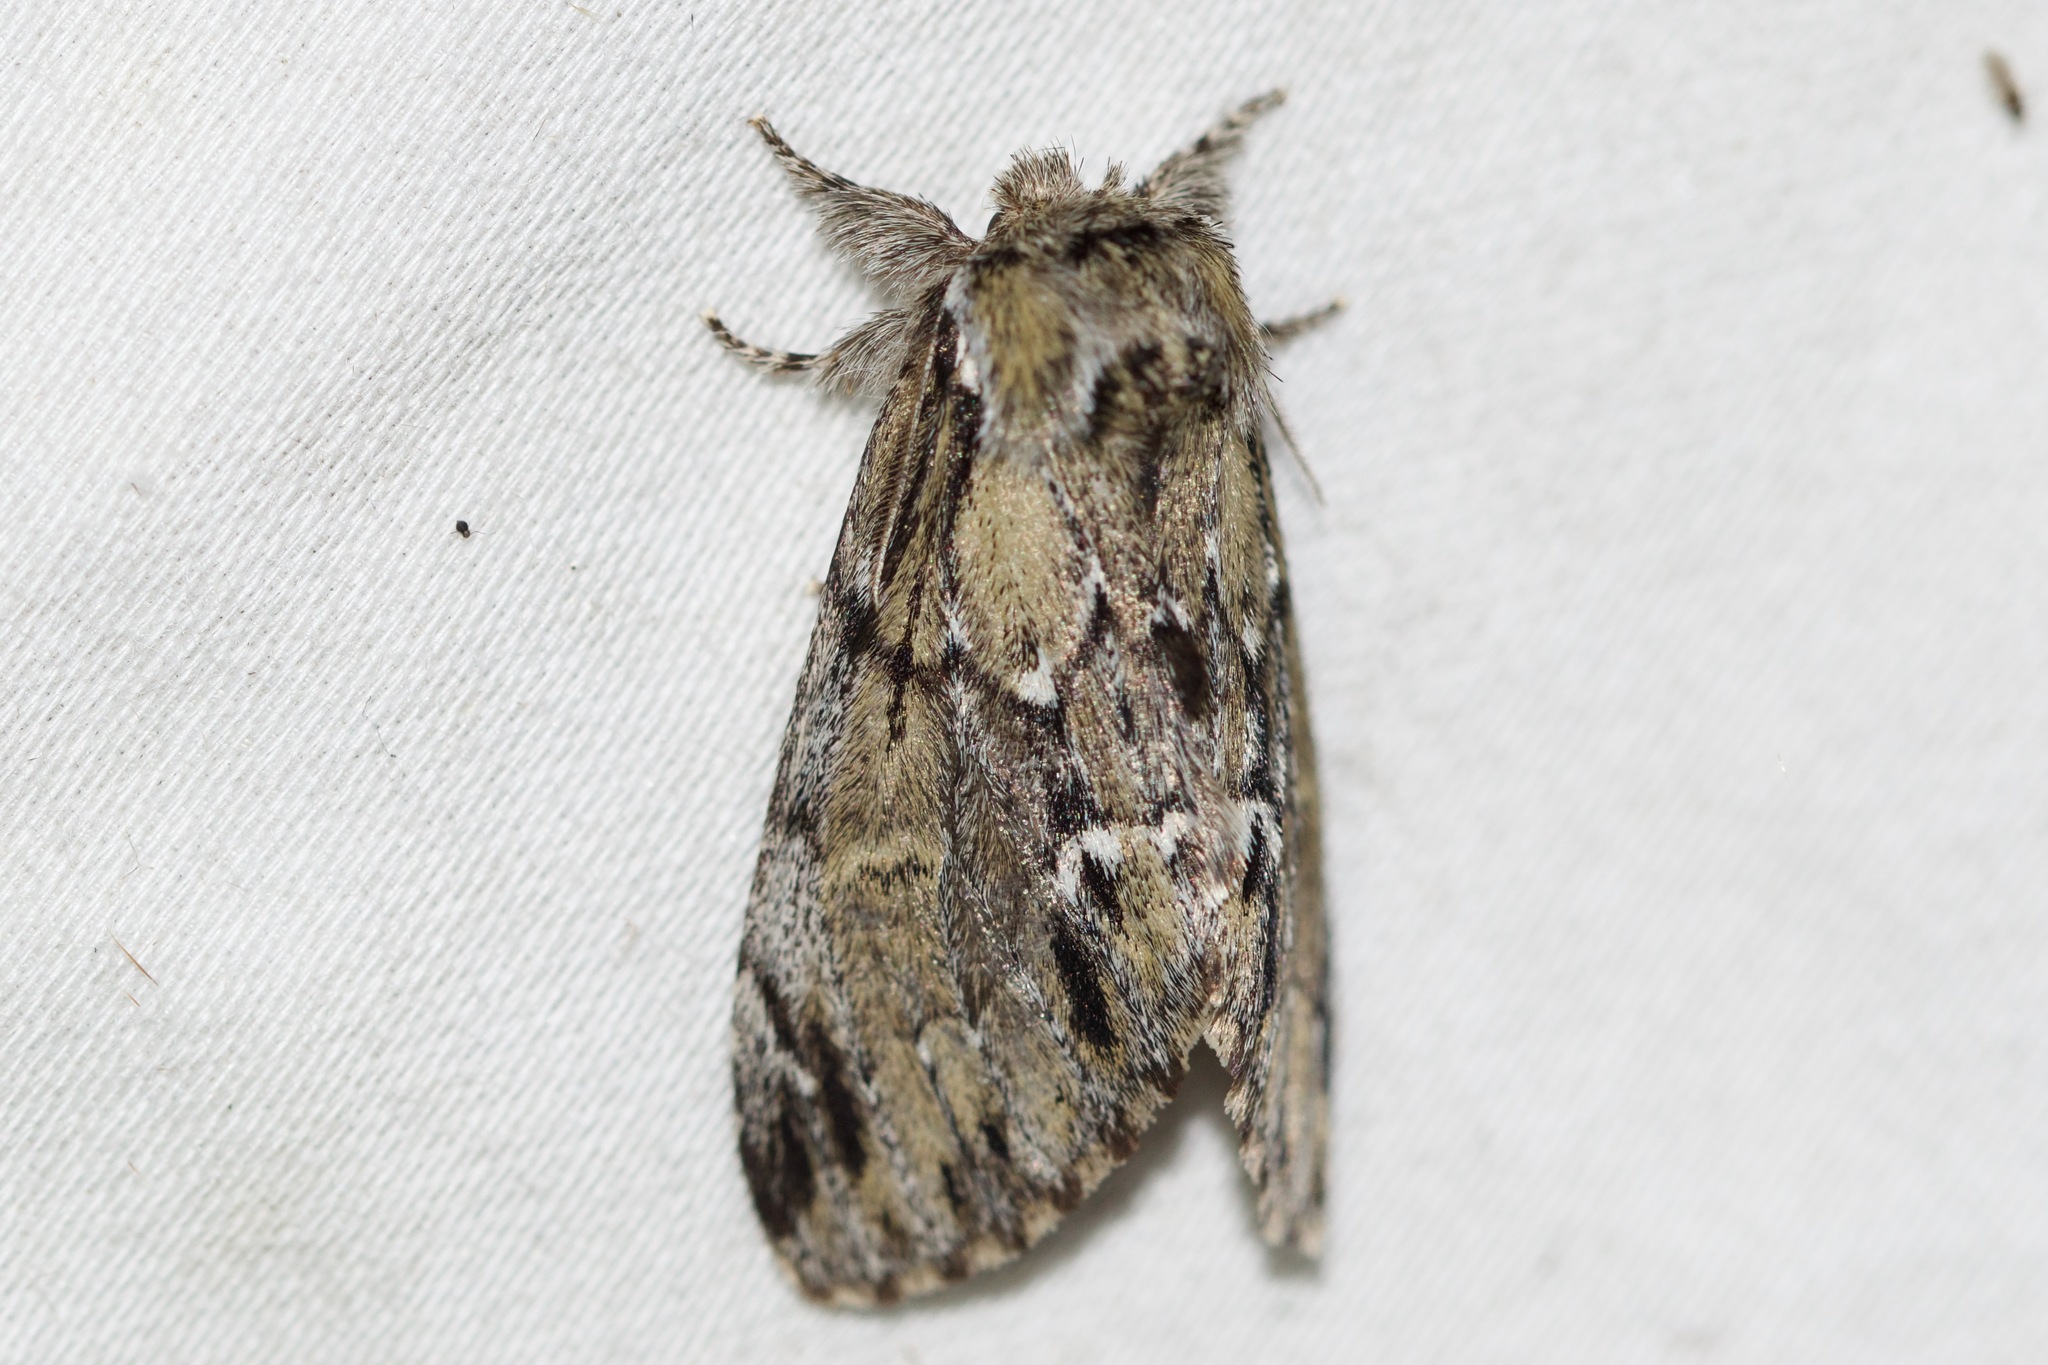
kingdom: Animalia
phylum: Arthropoda
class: Insecta
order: Lepidoptera
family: Notodontidae
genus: Paraeschra
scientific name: Paraeschra georgica
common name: Georgian prominent
